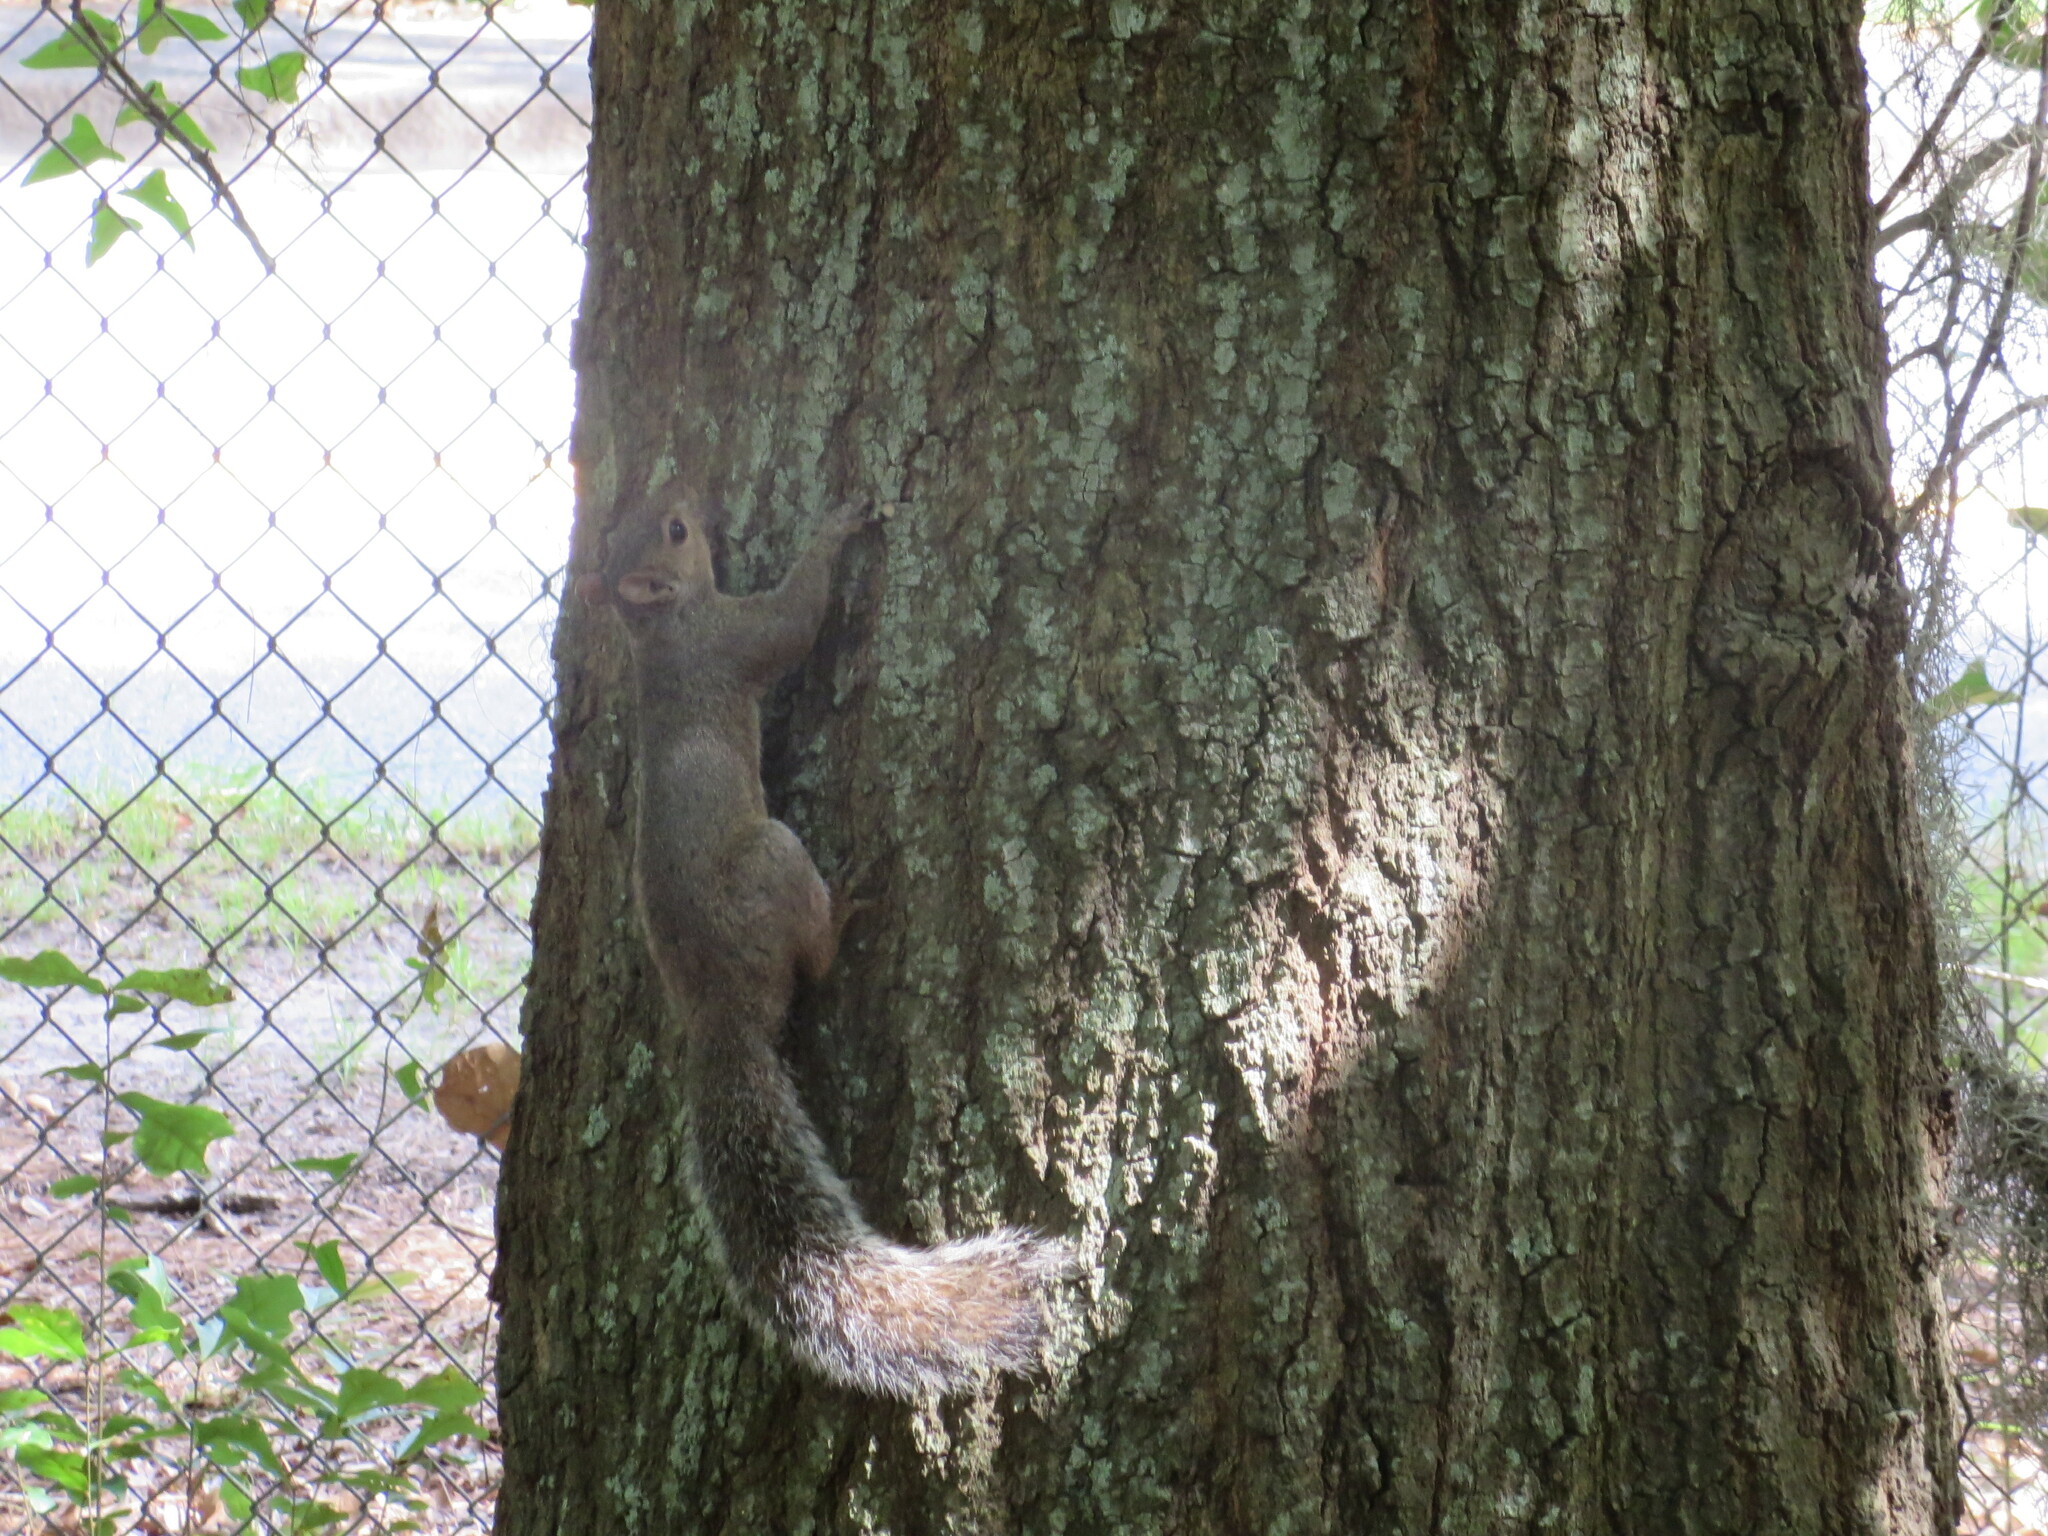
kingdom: Animalia
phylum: Chordata
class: Mammalia
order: Rodentia
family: Sciuridae
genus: Sciurus
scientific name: Sciurus carolinensis
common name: Eastern gray squirrel
